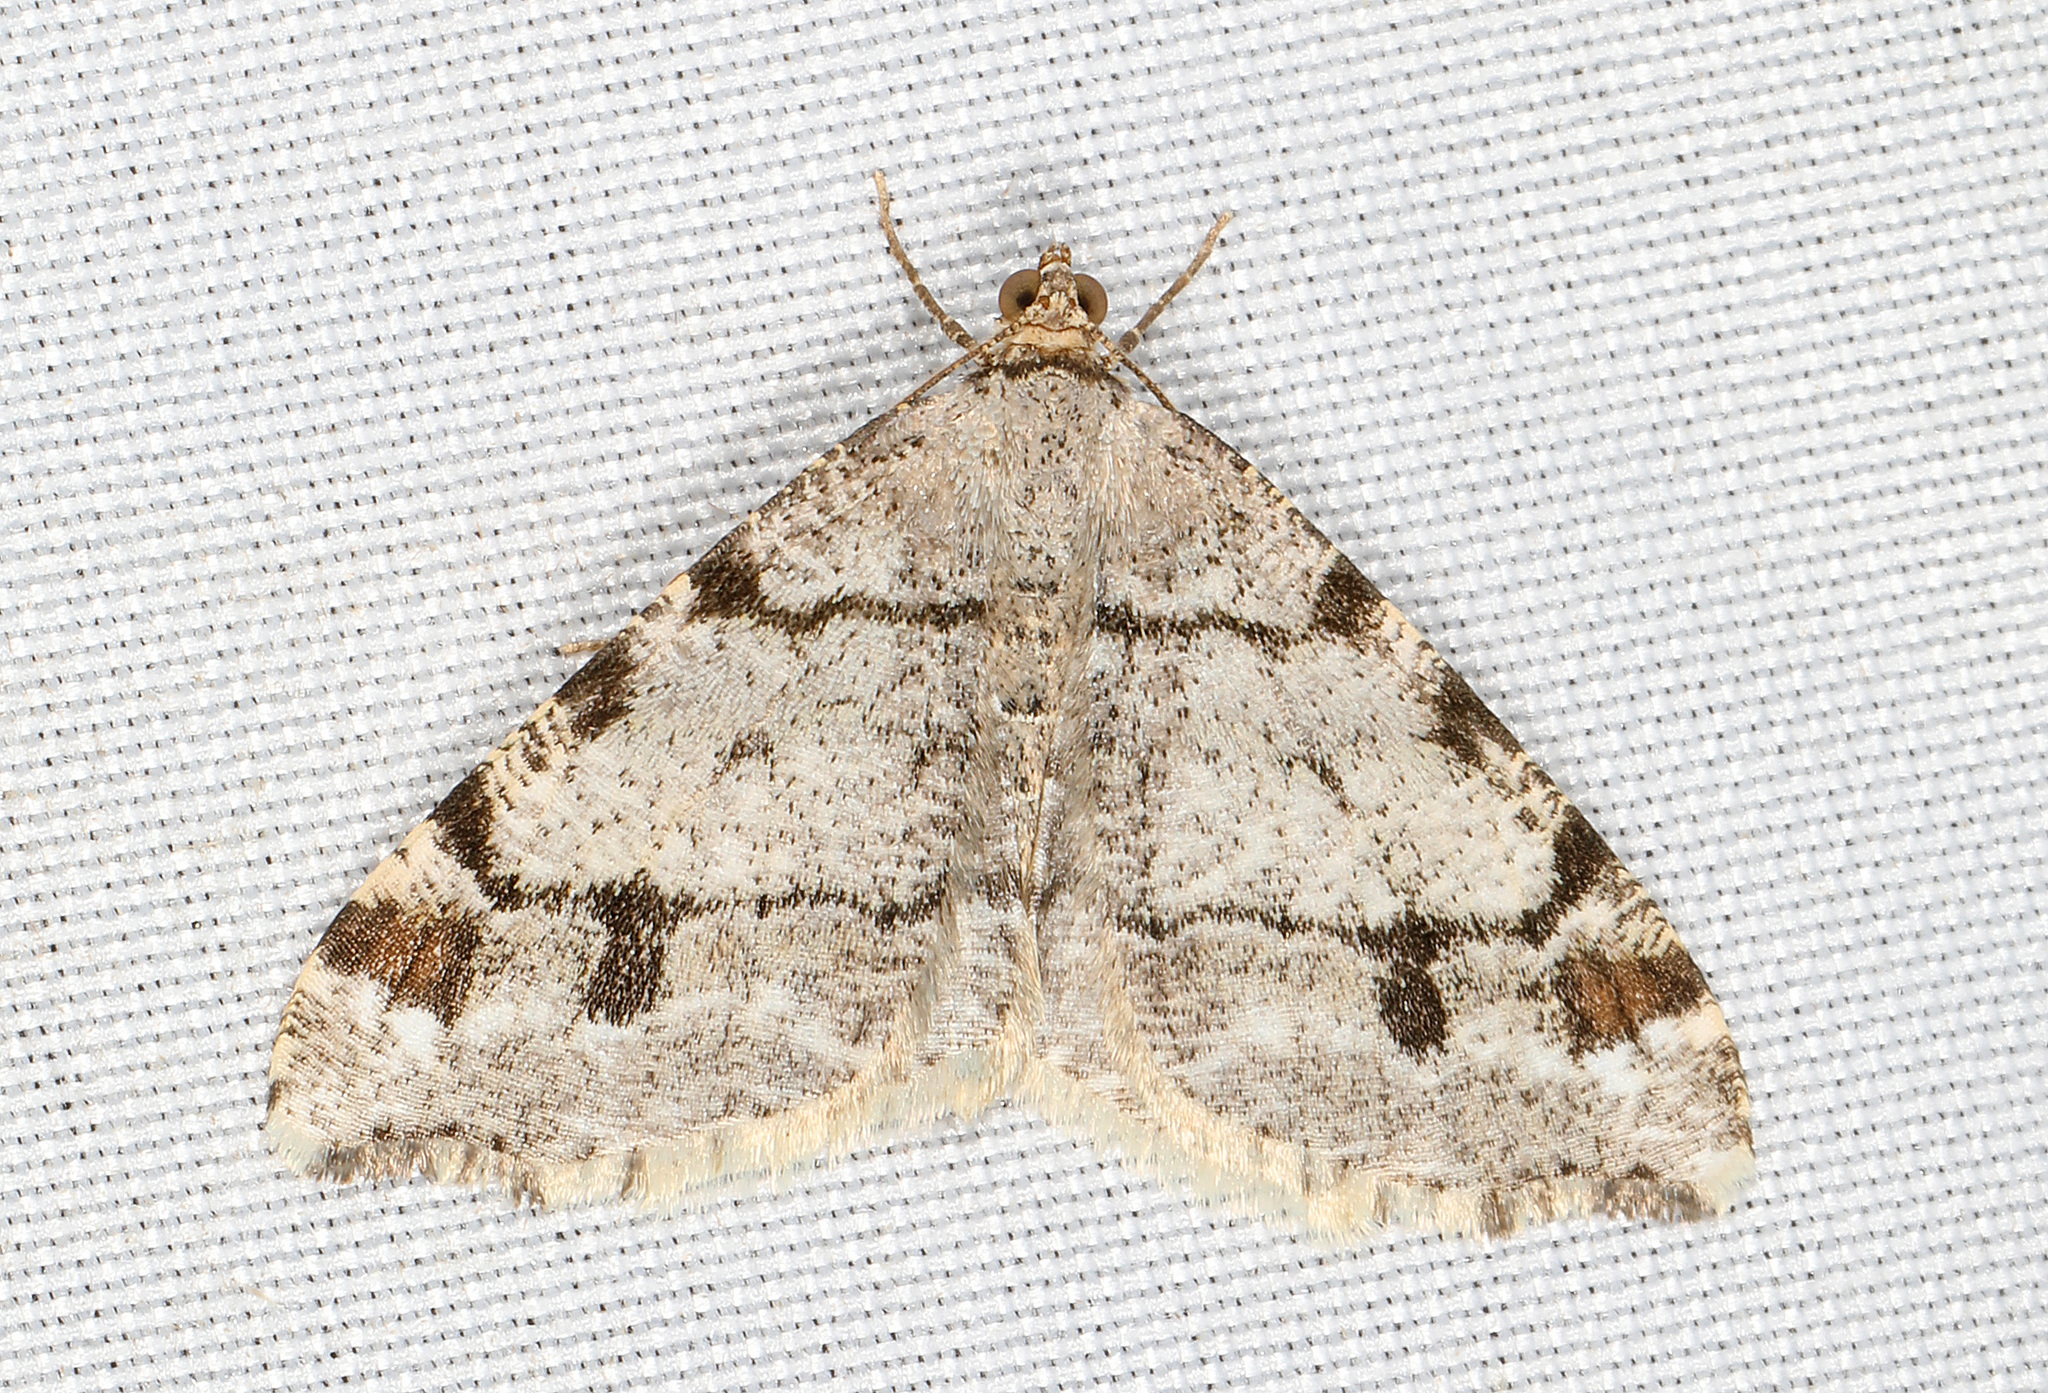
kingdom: Animalia
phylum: Arthropoda
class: Insecta
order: Lepidoptera
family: Geometridae
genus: Macaria
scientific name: Macaria fissinotata
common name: Hemlock angle
